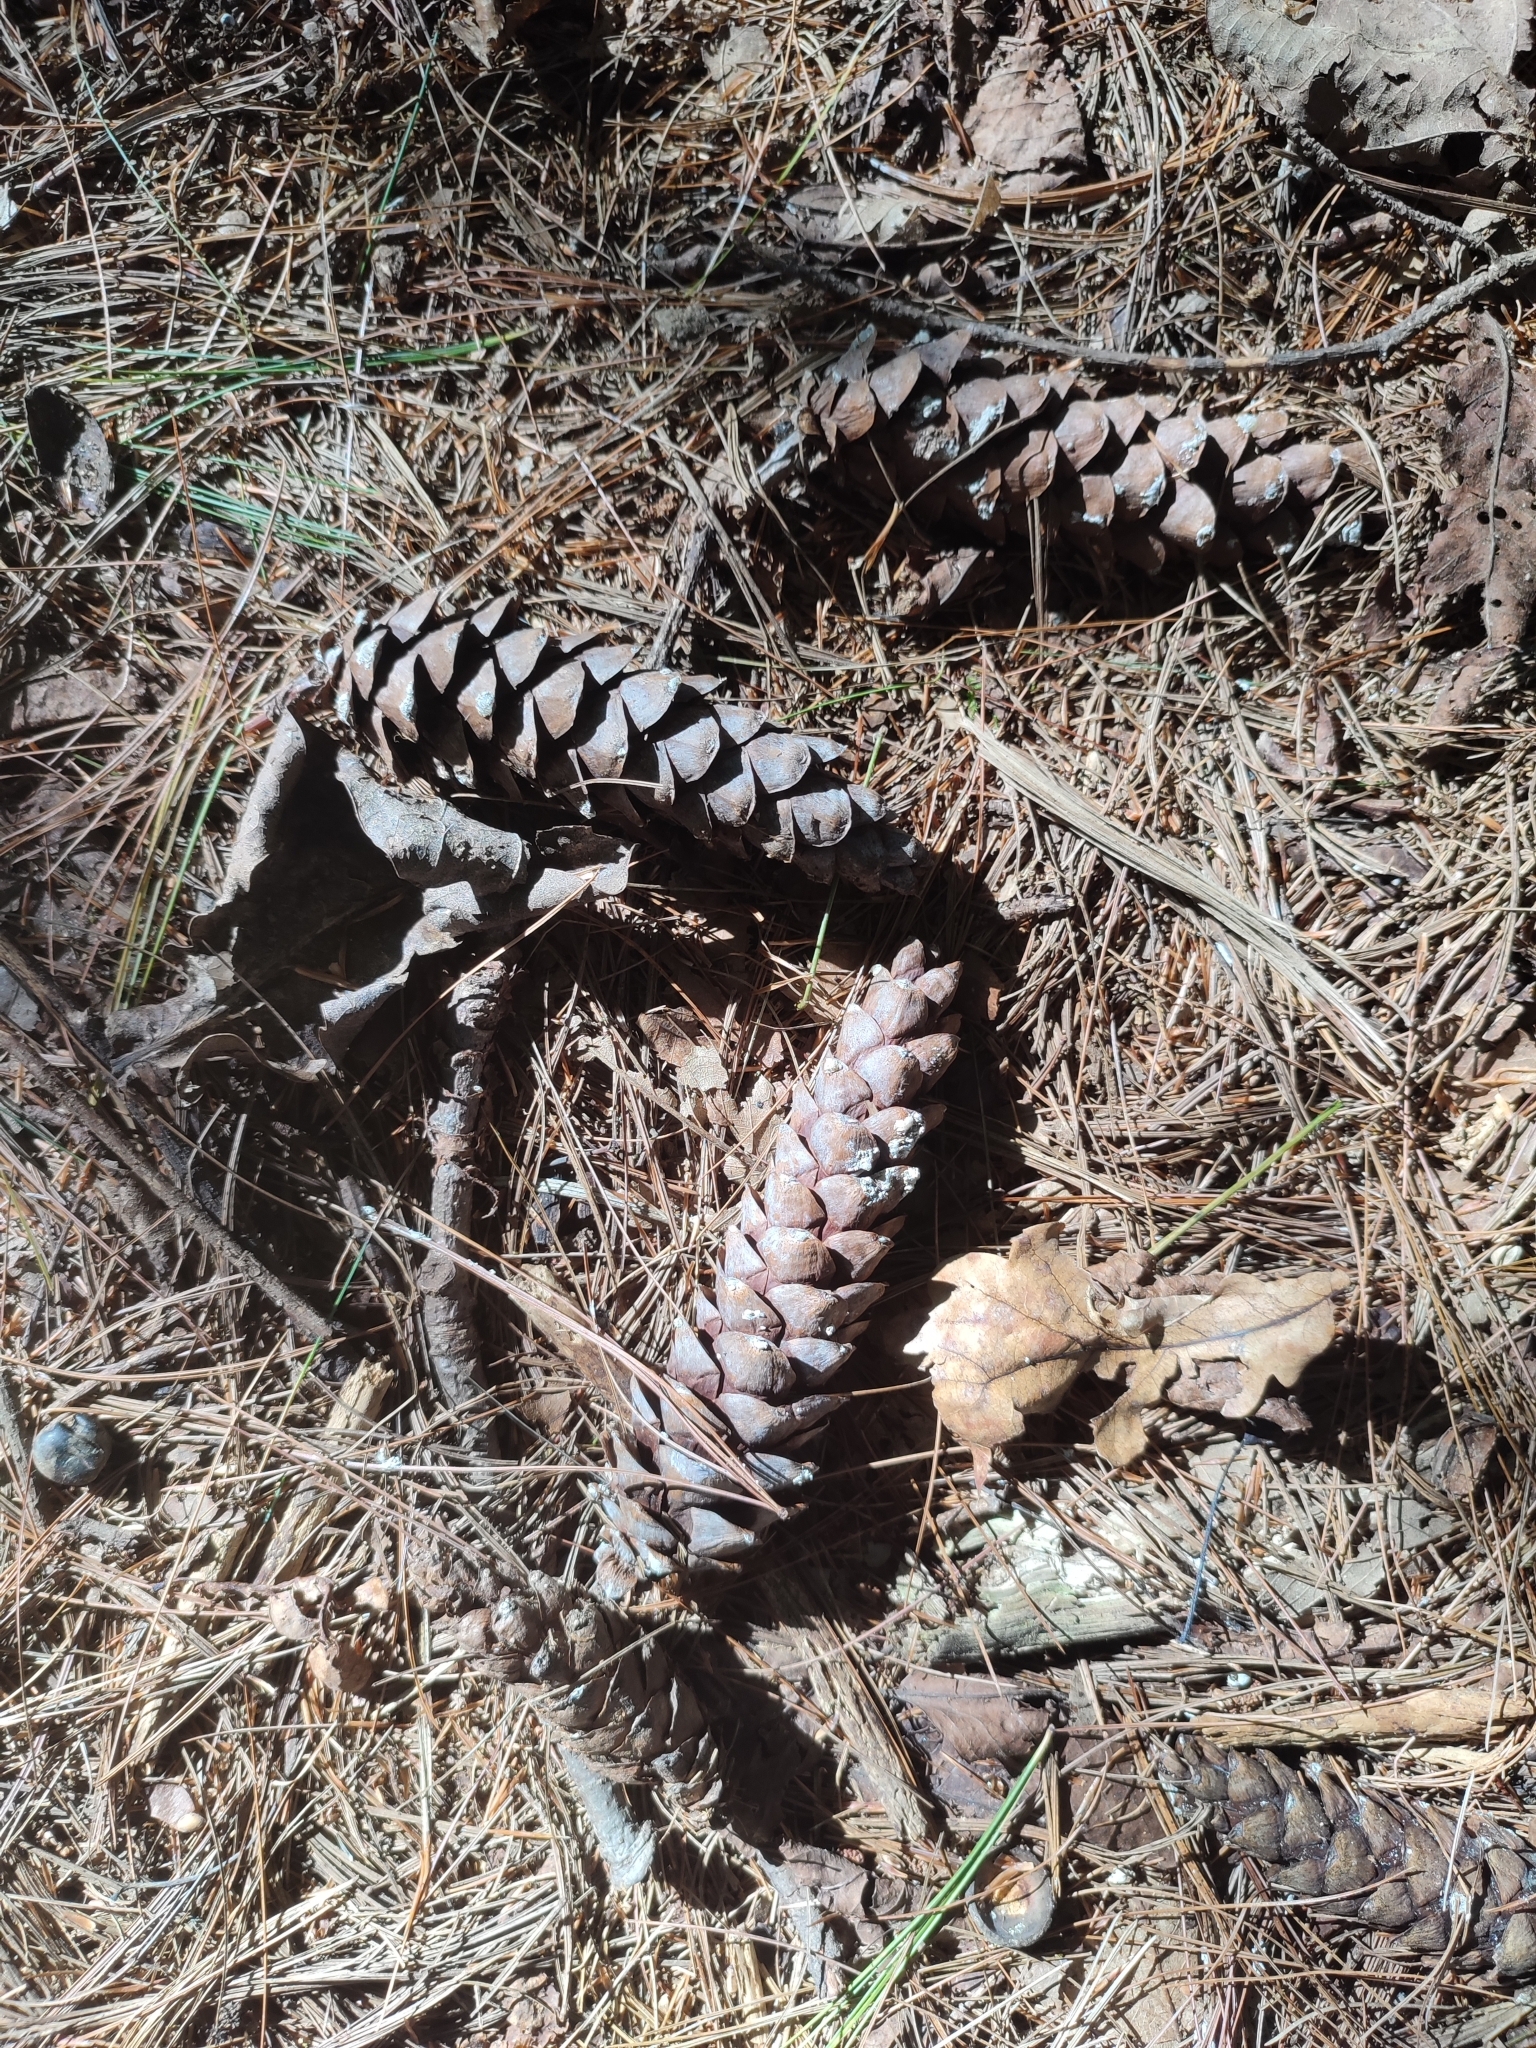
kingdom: Plantae
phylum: Tracheophyta
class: Pinopsida
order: Pinales
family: Pinaceae
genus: Pinus
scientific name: Pinus strobus
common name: Weymouth pine
